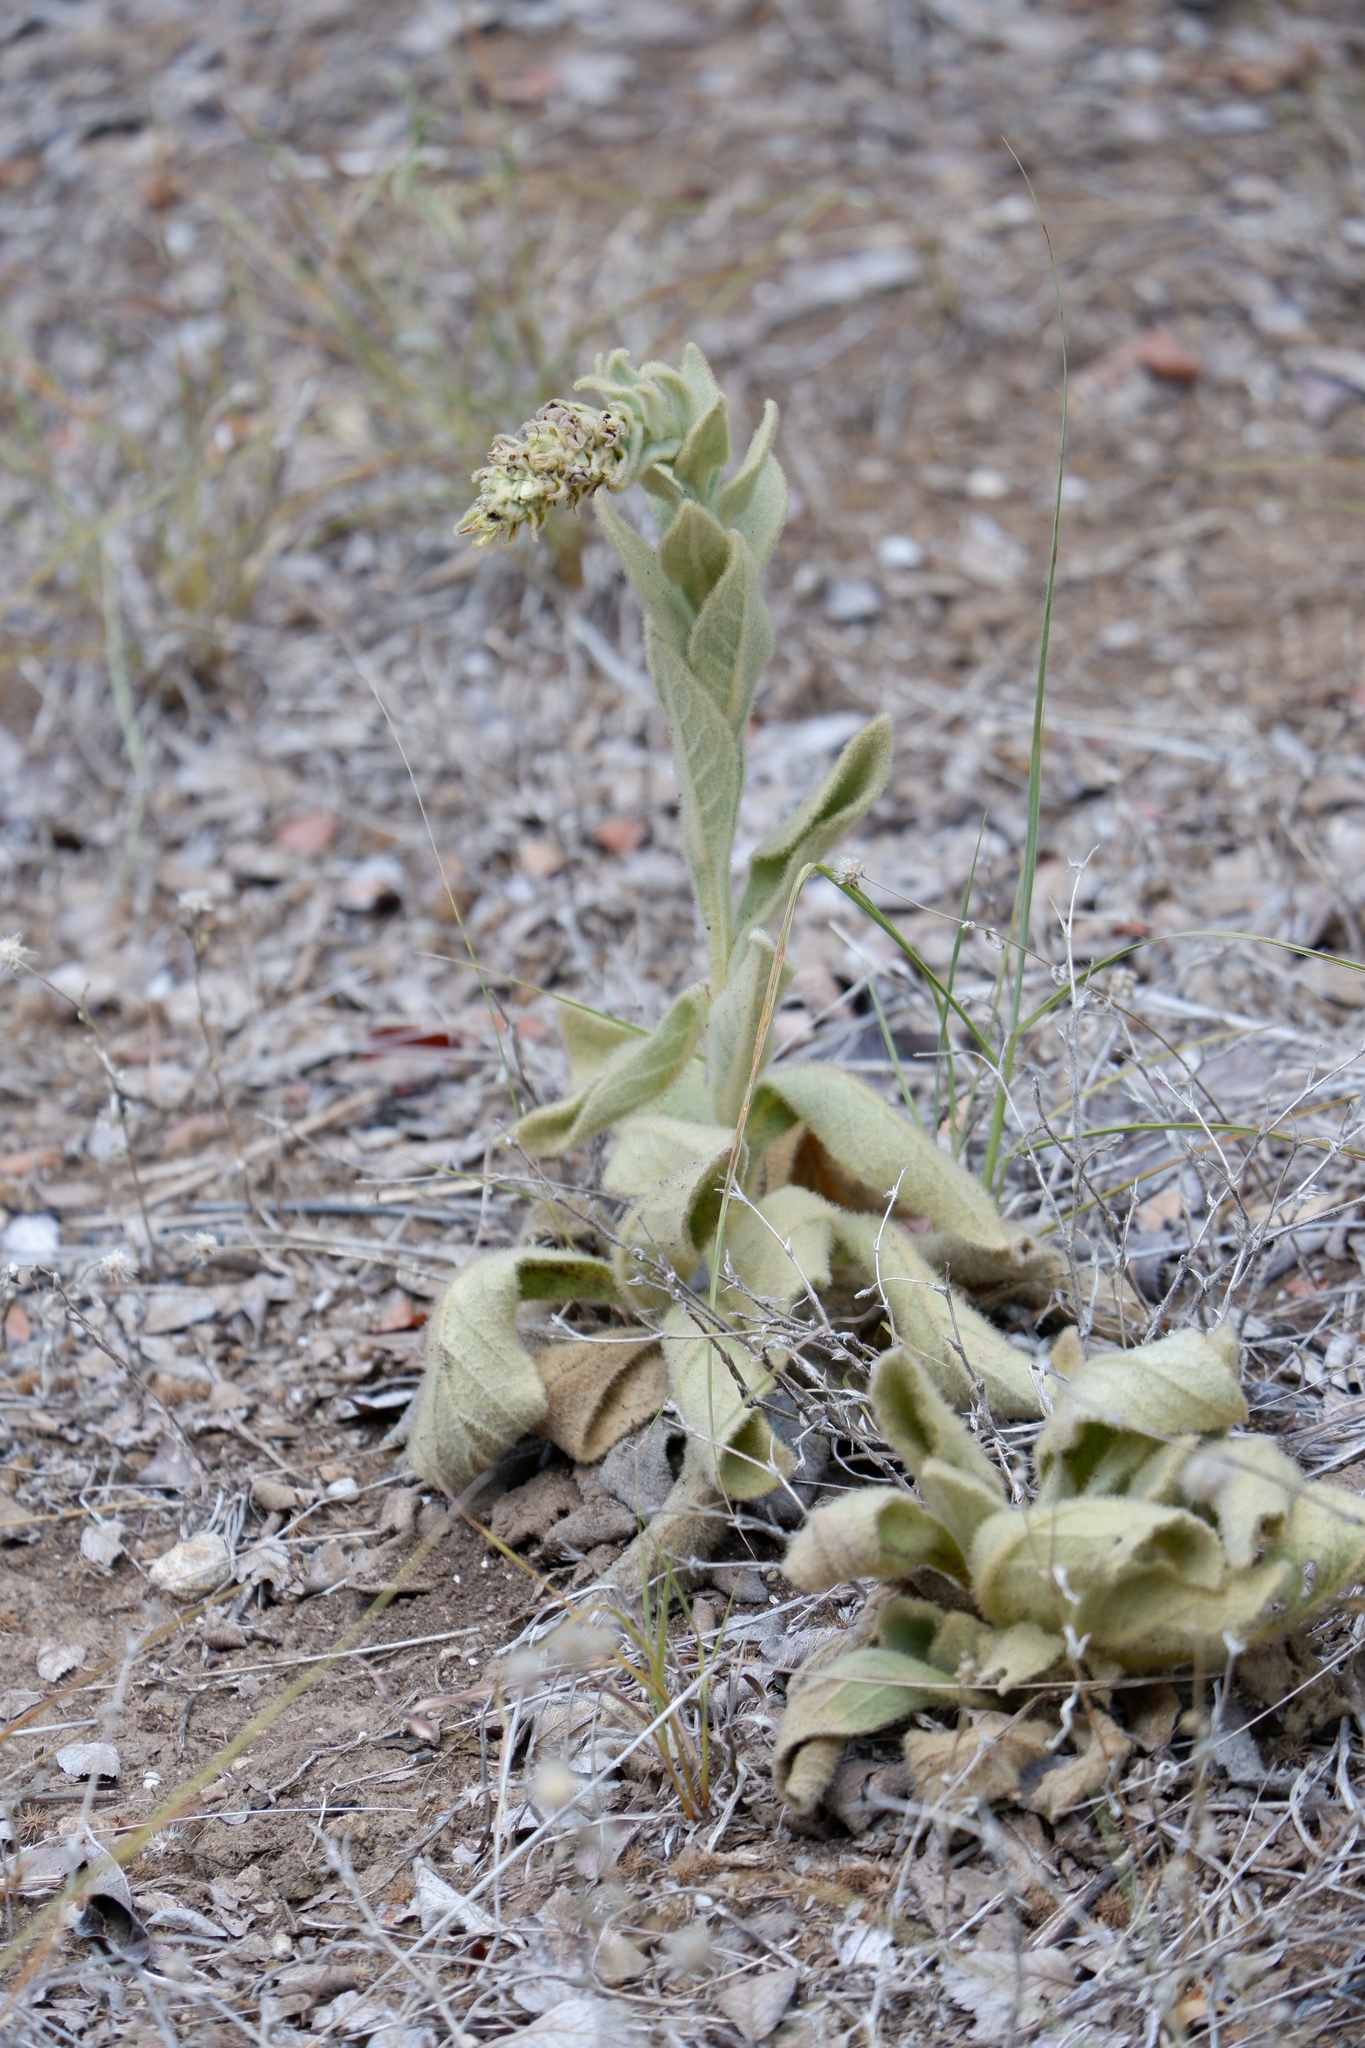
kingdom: Plantae
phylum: Tracheophyta
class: Magnoliopsida
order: Lamiales
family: Scrophulariaceae
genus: Verbascum
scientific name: Verbascum thapsus
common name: Common mullein
